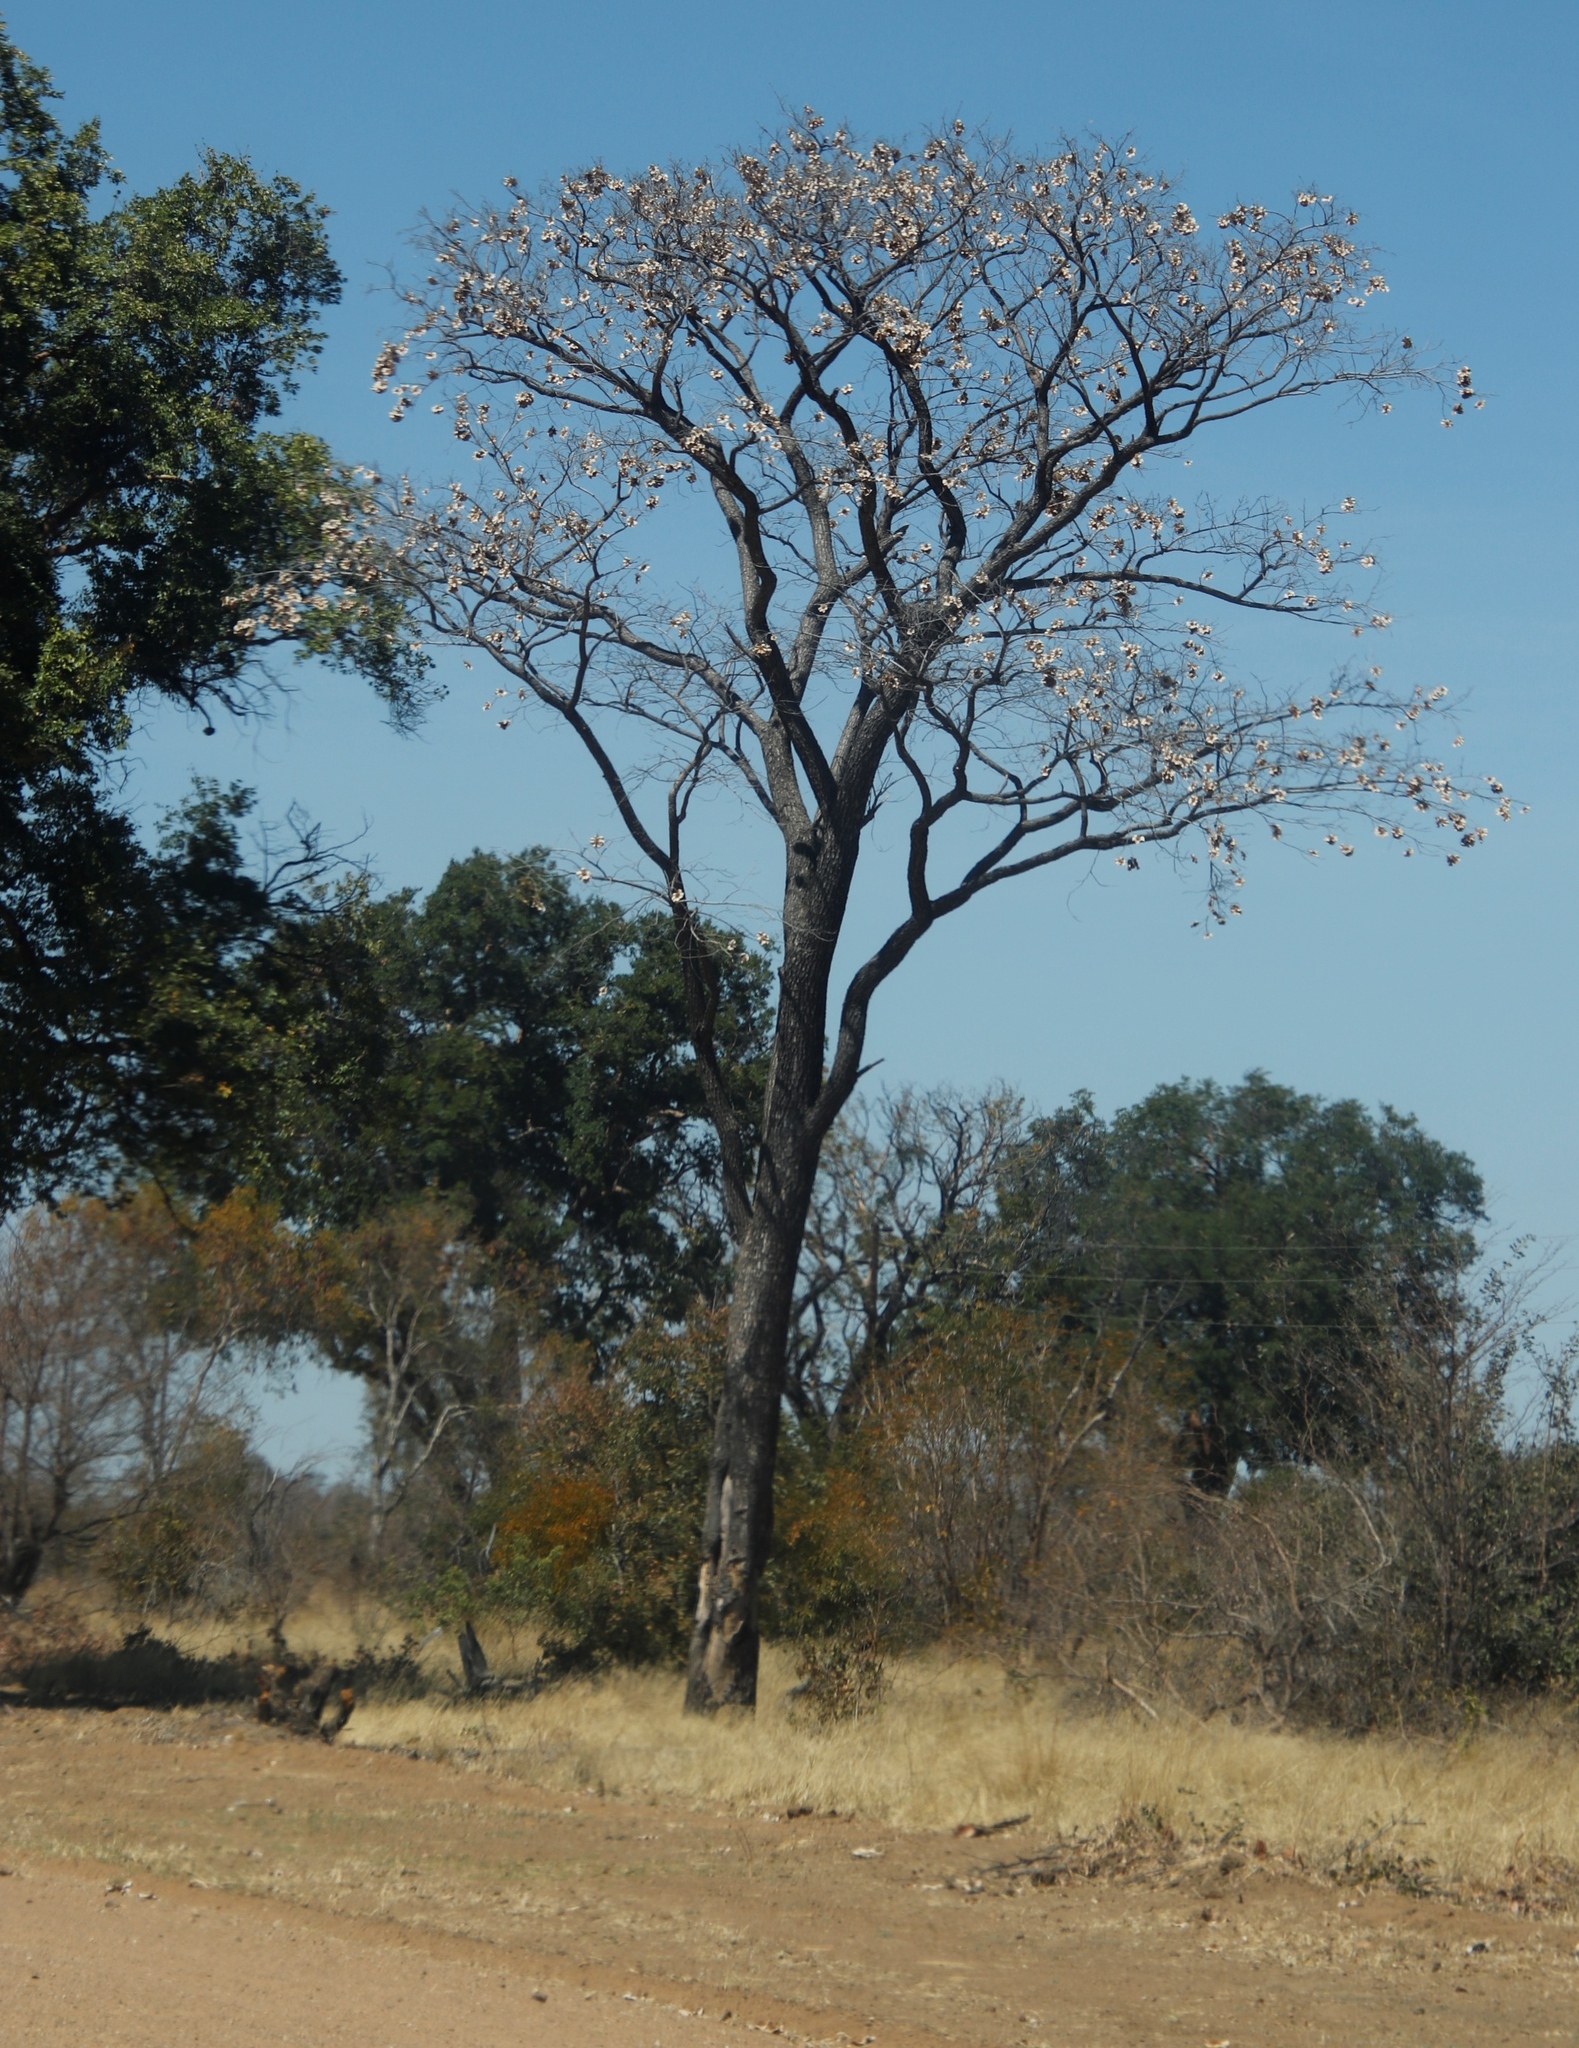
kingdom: Plantae
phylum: Tracheophyta
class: Magnoliopsida
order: Fabales
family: Fabaceae
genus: Pterocarpus
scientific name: Pterocarpus angolensis
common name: Bloodwood tree
